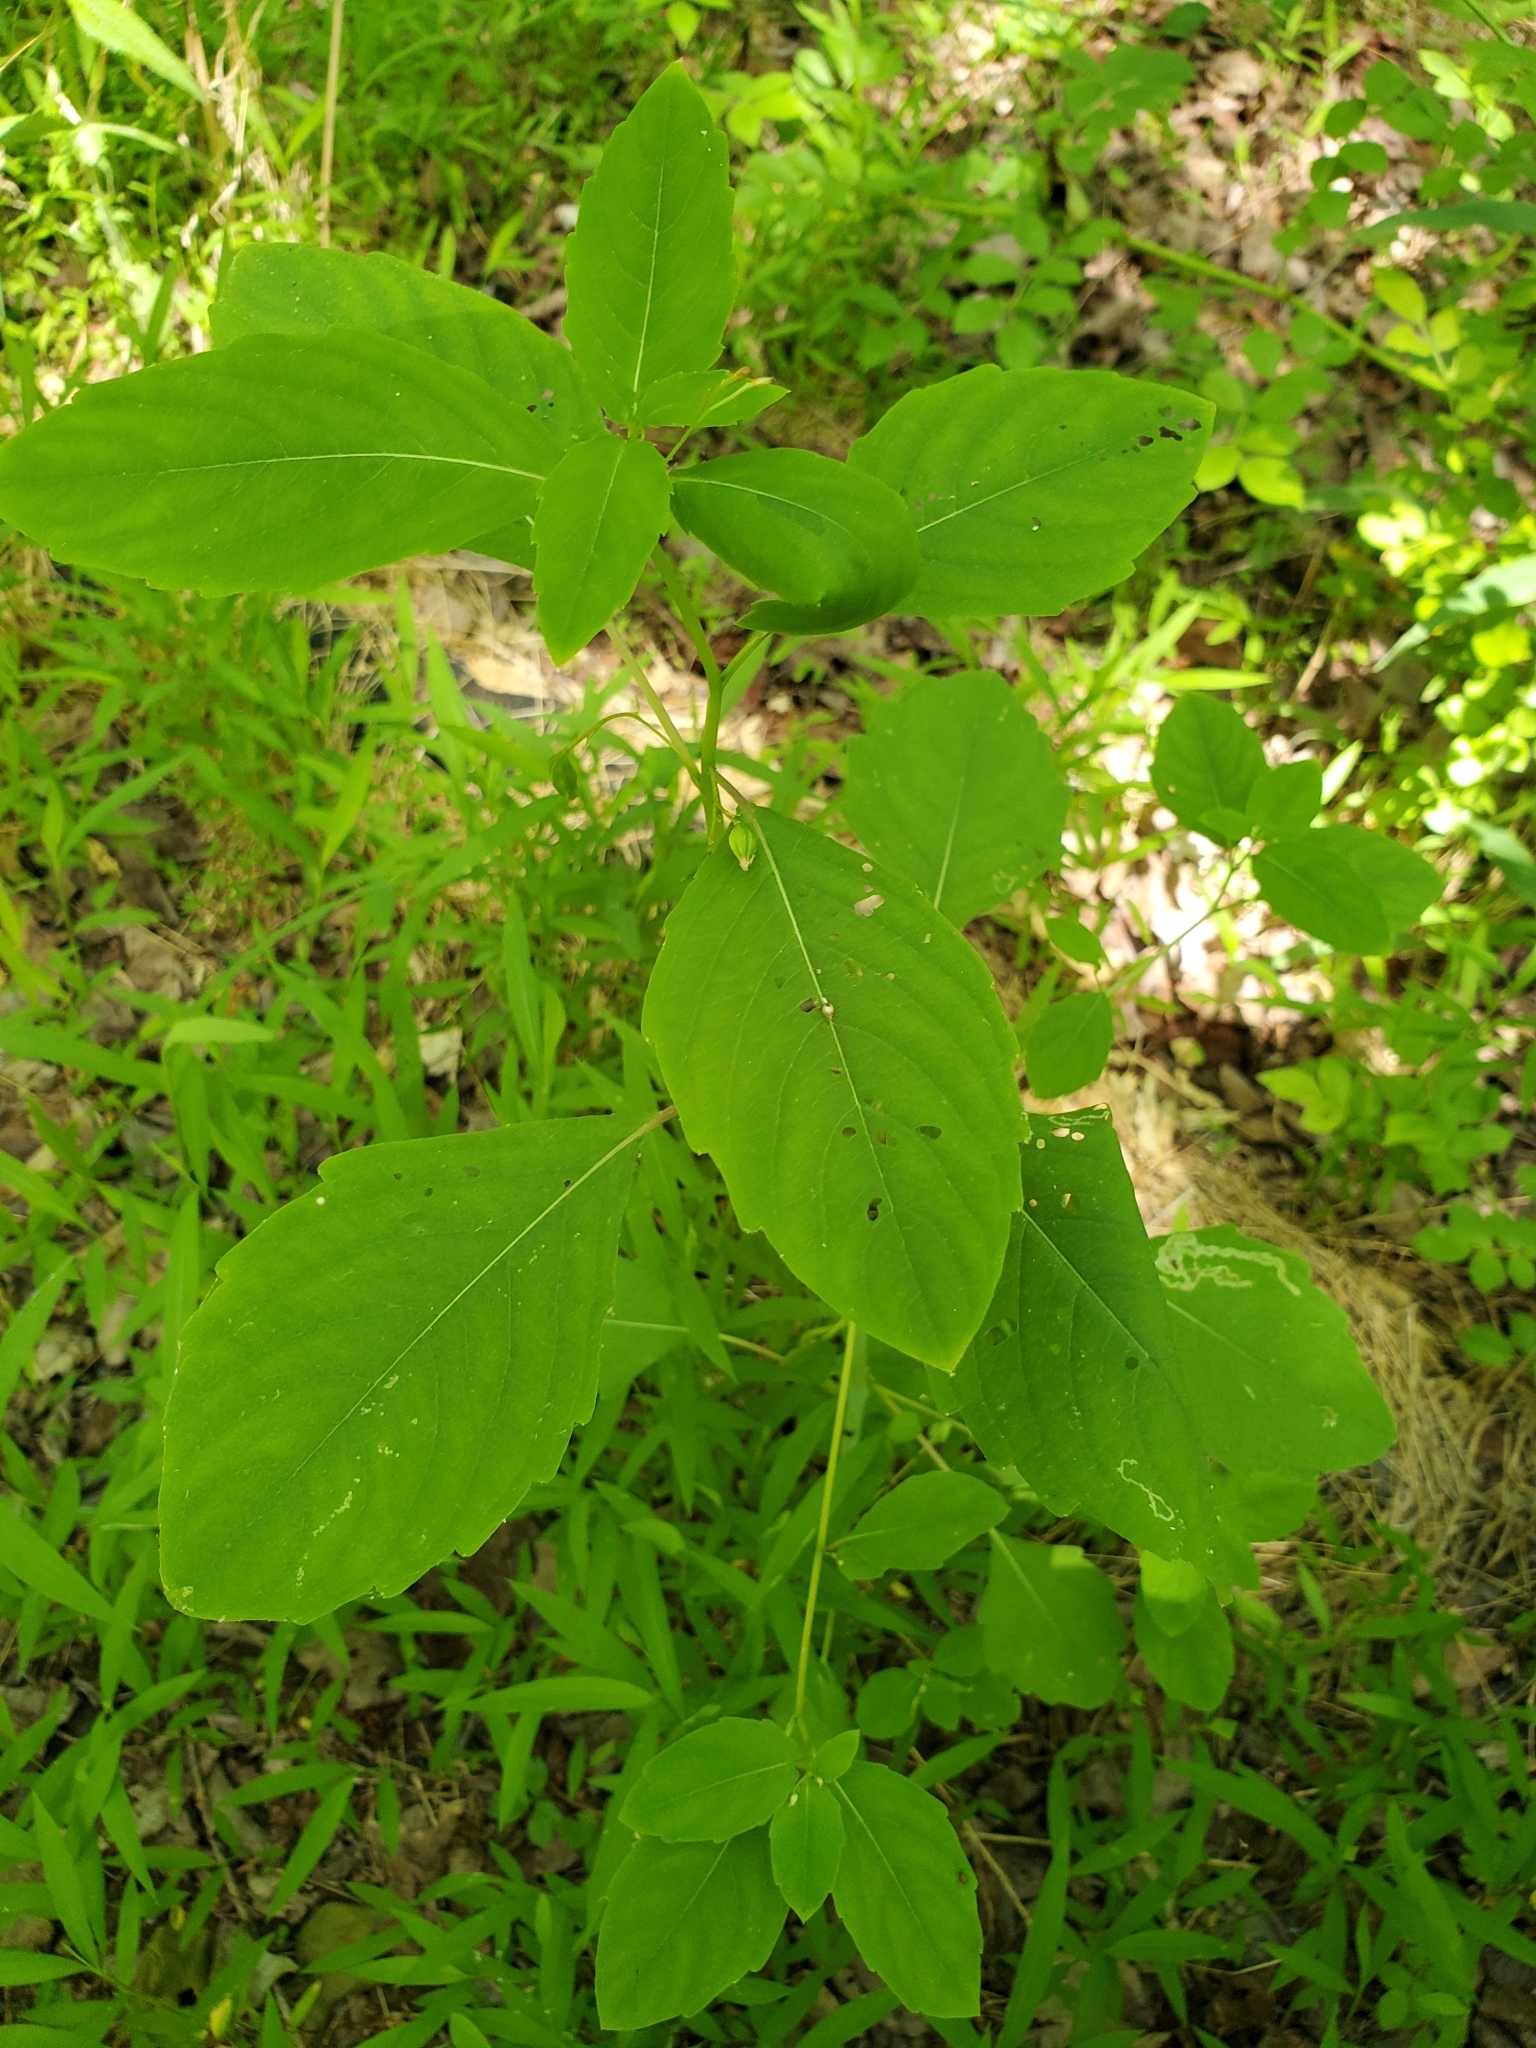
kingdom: Plantae
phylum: Tracheophyta
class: Magnoliopsida
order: Ericales
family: Balsaminaceae
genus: Impatiens
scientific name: Impatiens capensis
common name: Orange balsam
